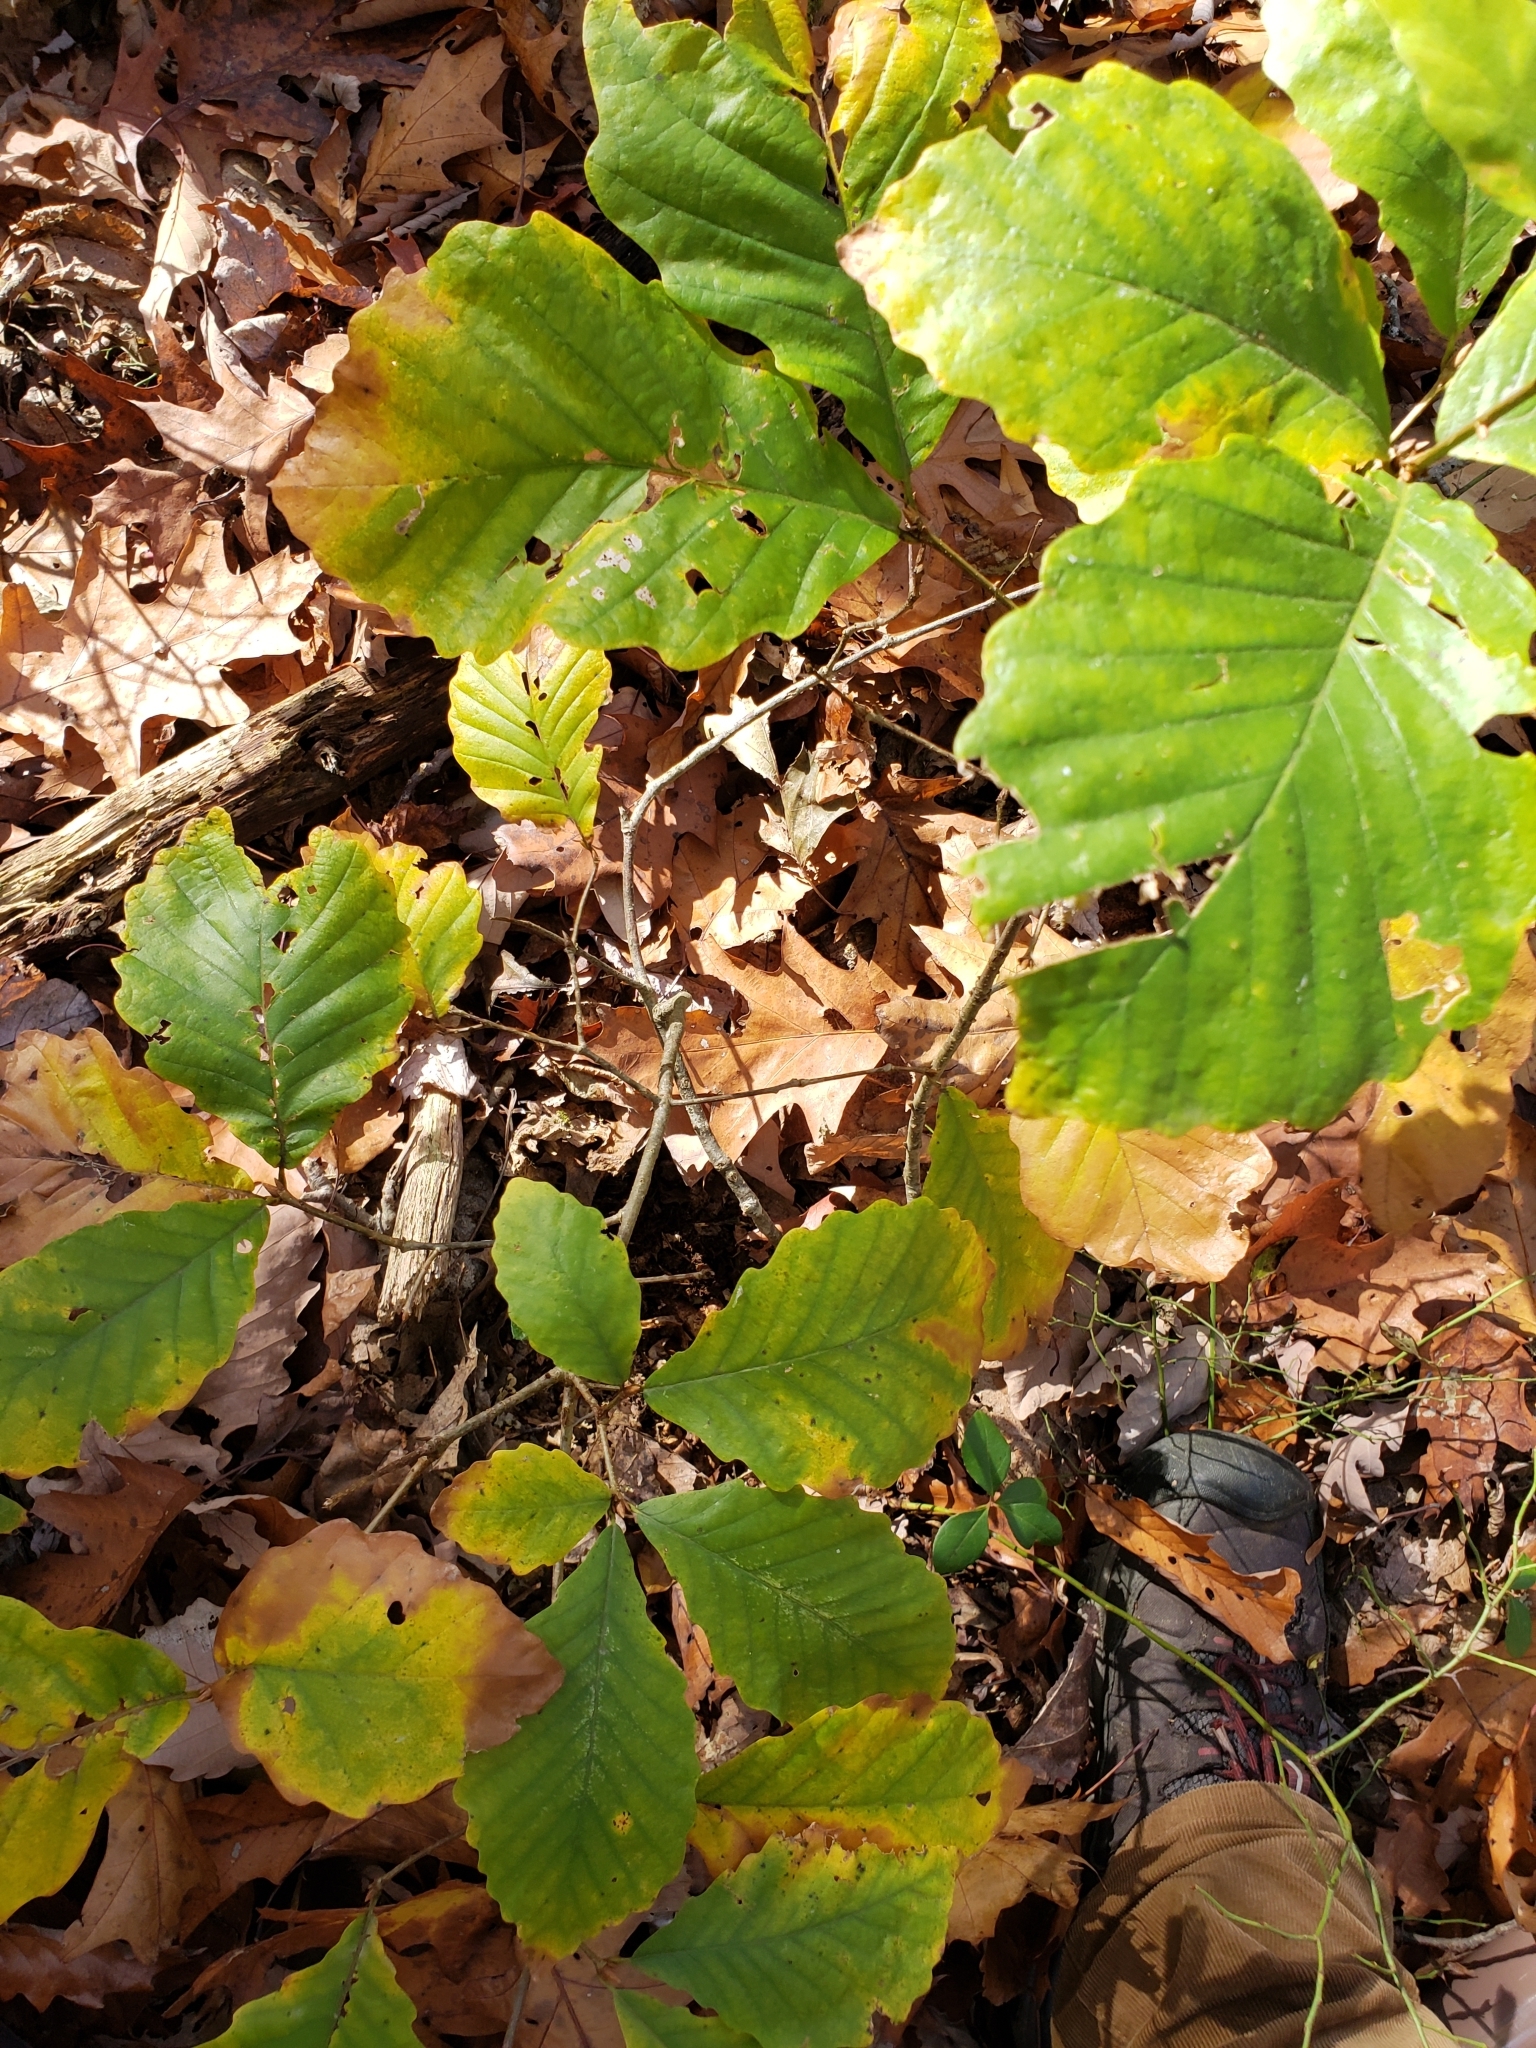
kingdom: Animalia
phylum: Arthropoda
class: Insecta
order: Hymenoptera
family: Cynipidae
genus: Holocynips
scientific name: Holocynips
